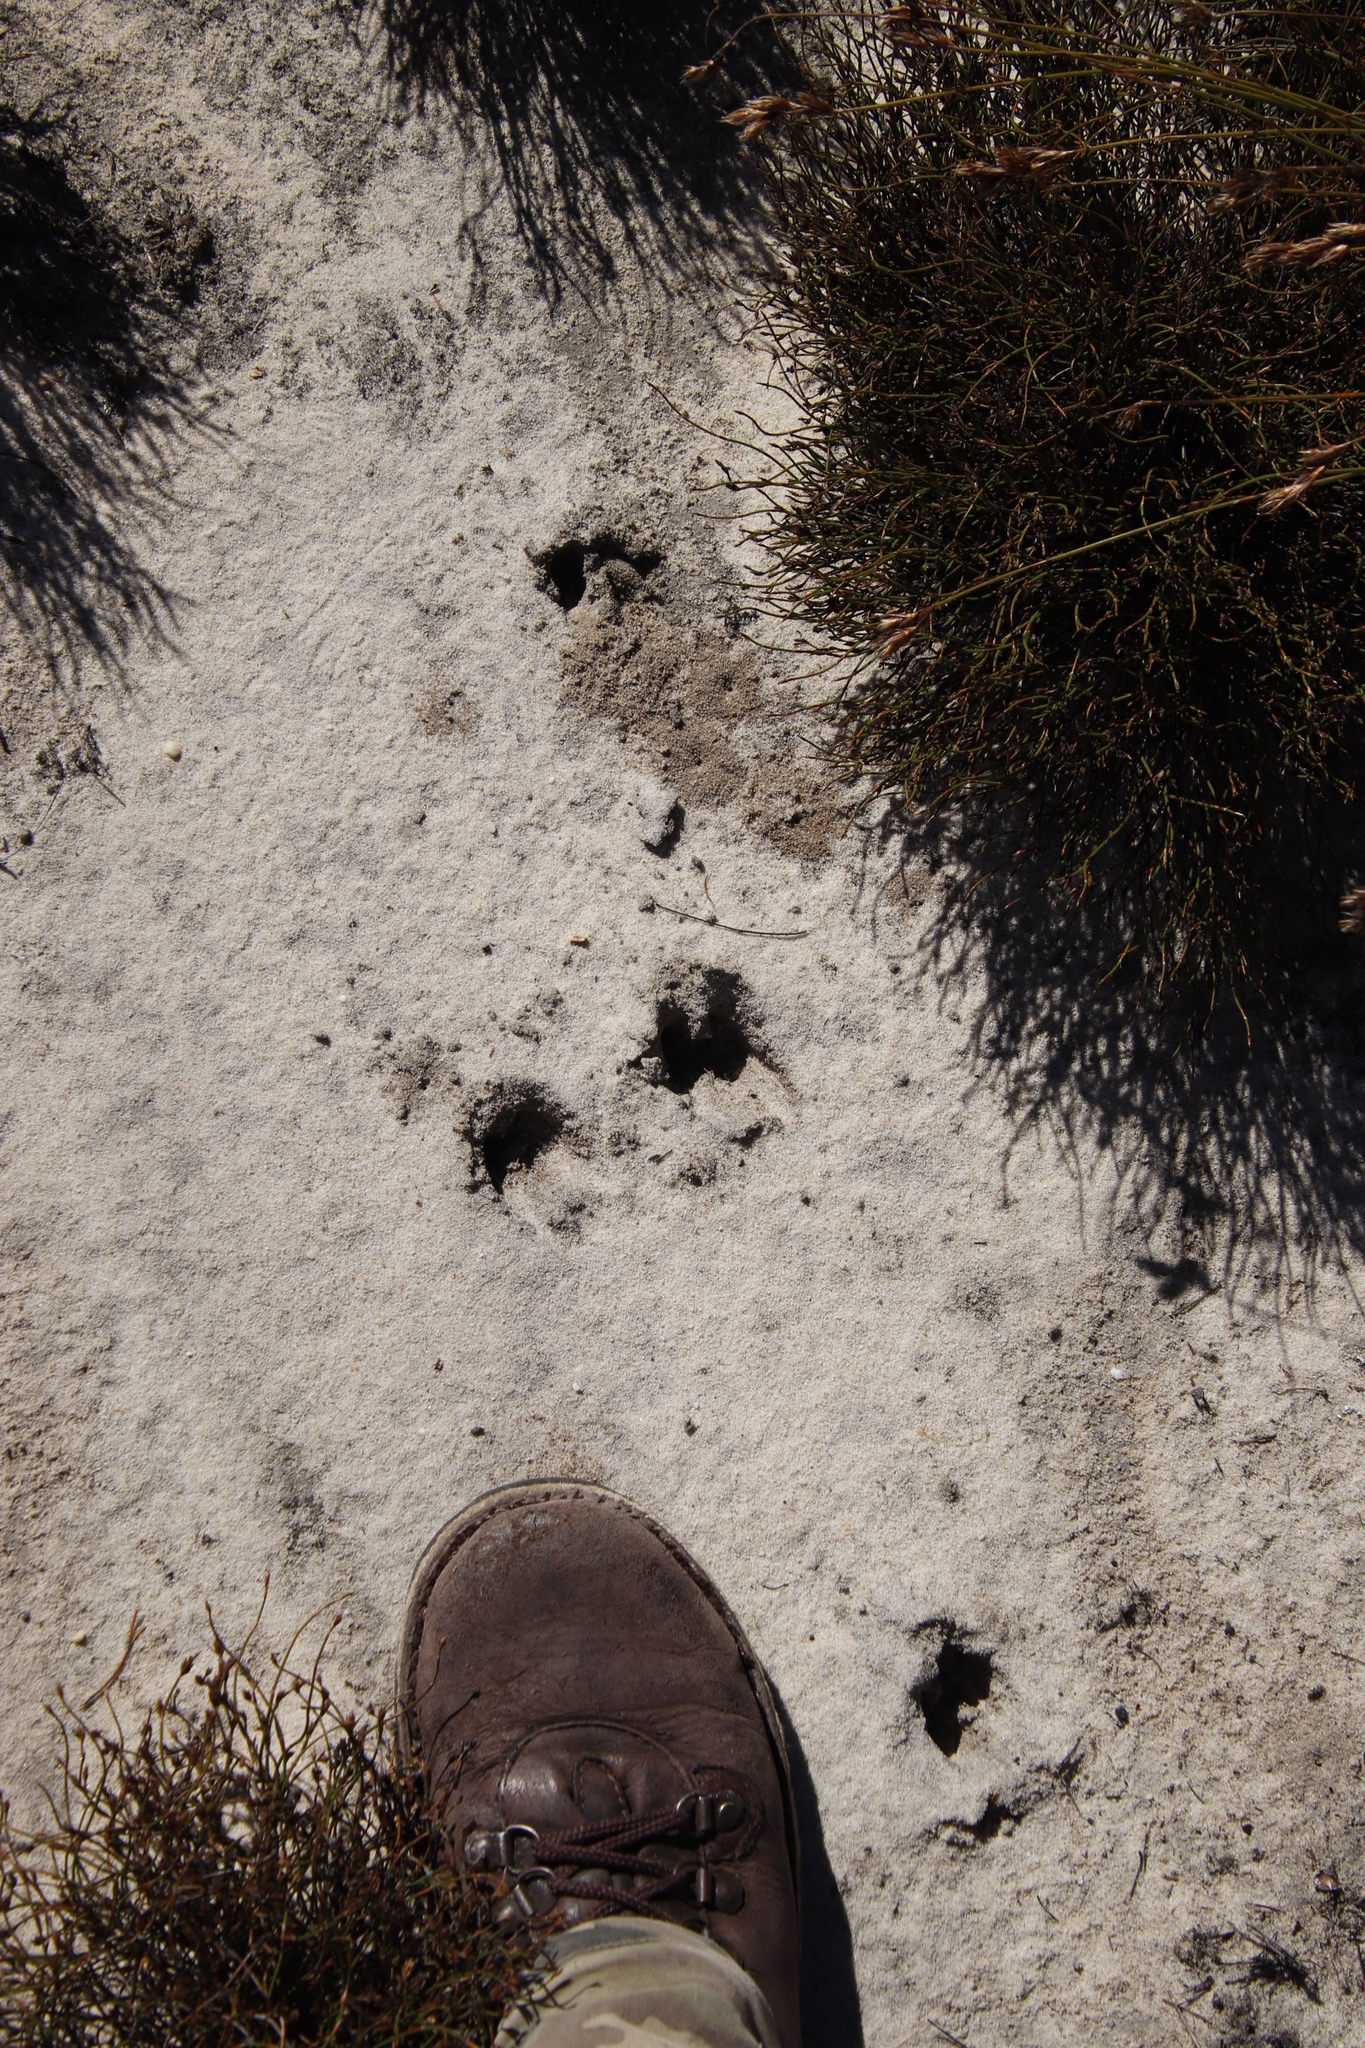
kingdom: Animalia
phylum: Chordata
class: Mammalia
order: Artiodactyla
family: Bovidae
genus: Oreotragus
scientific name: Oreotragus oreotragus
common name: Klipspringer
